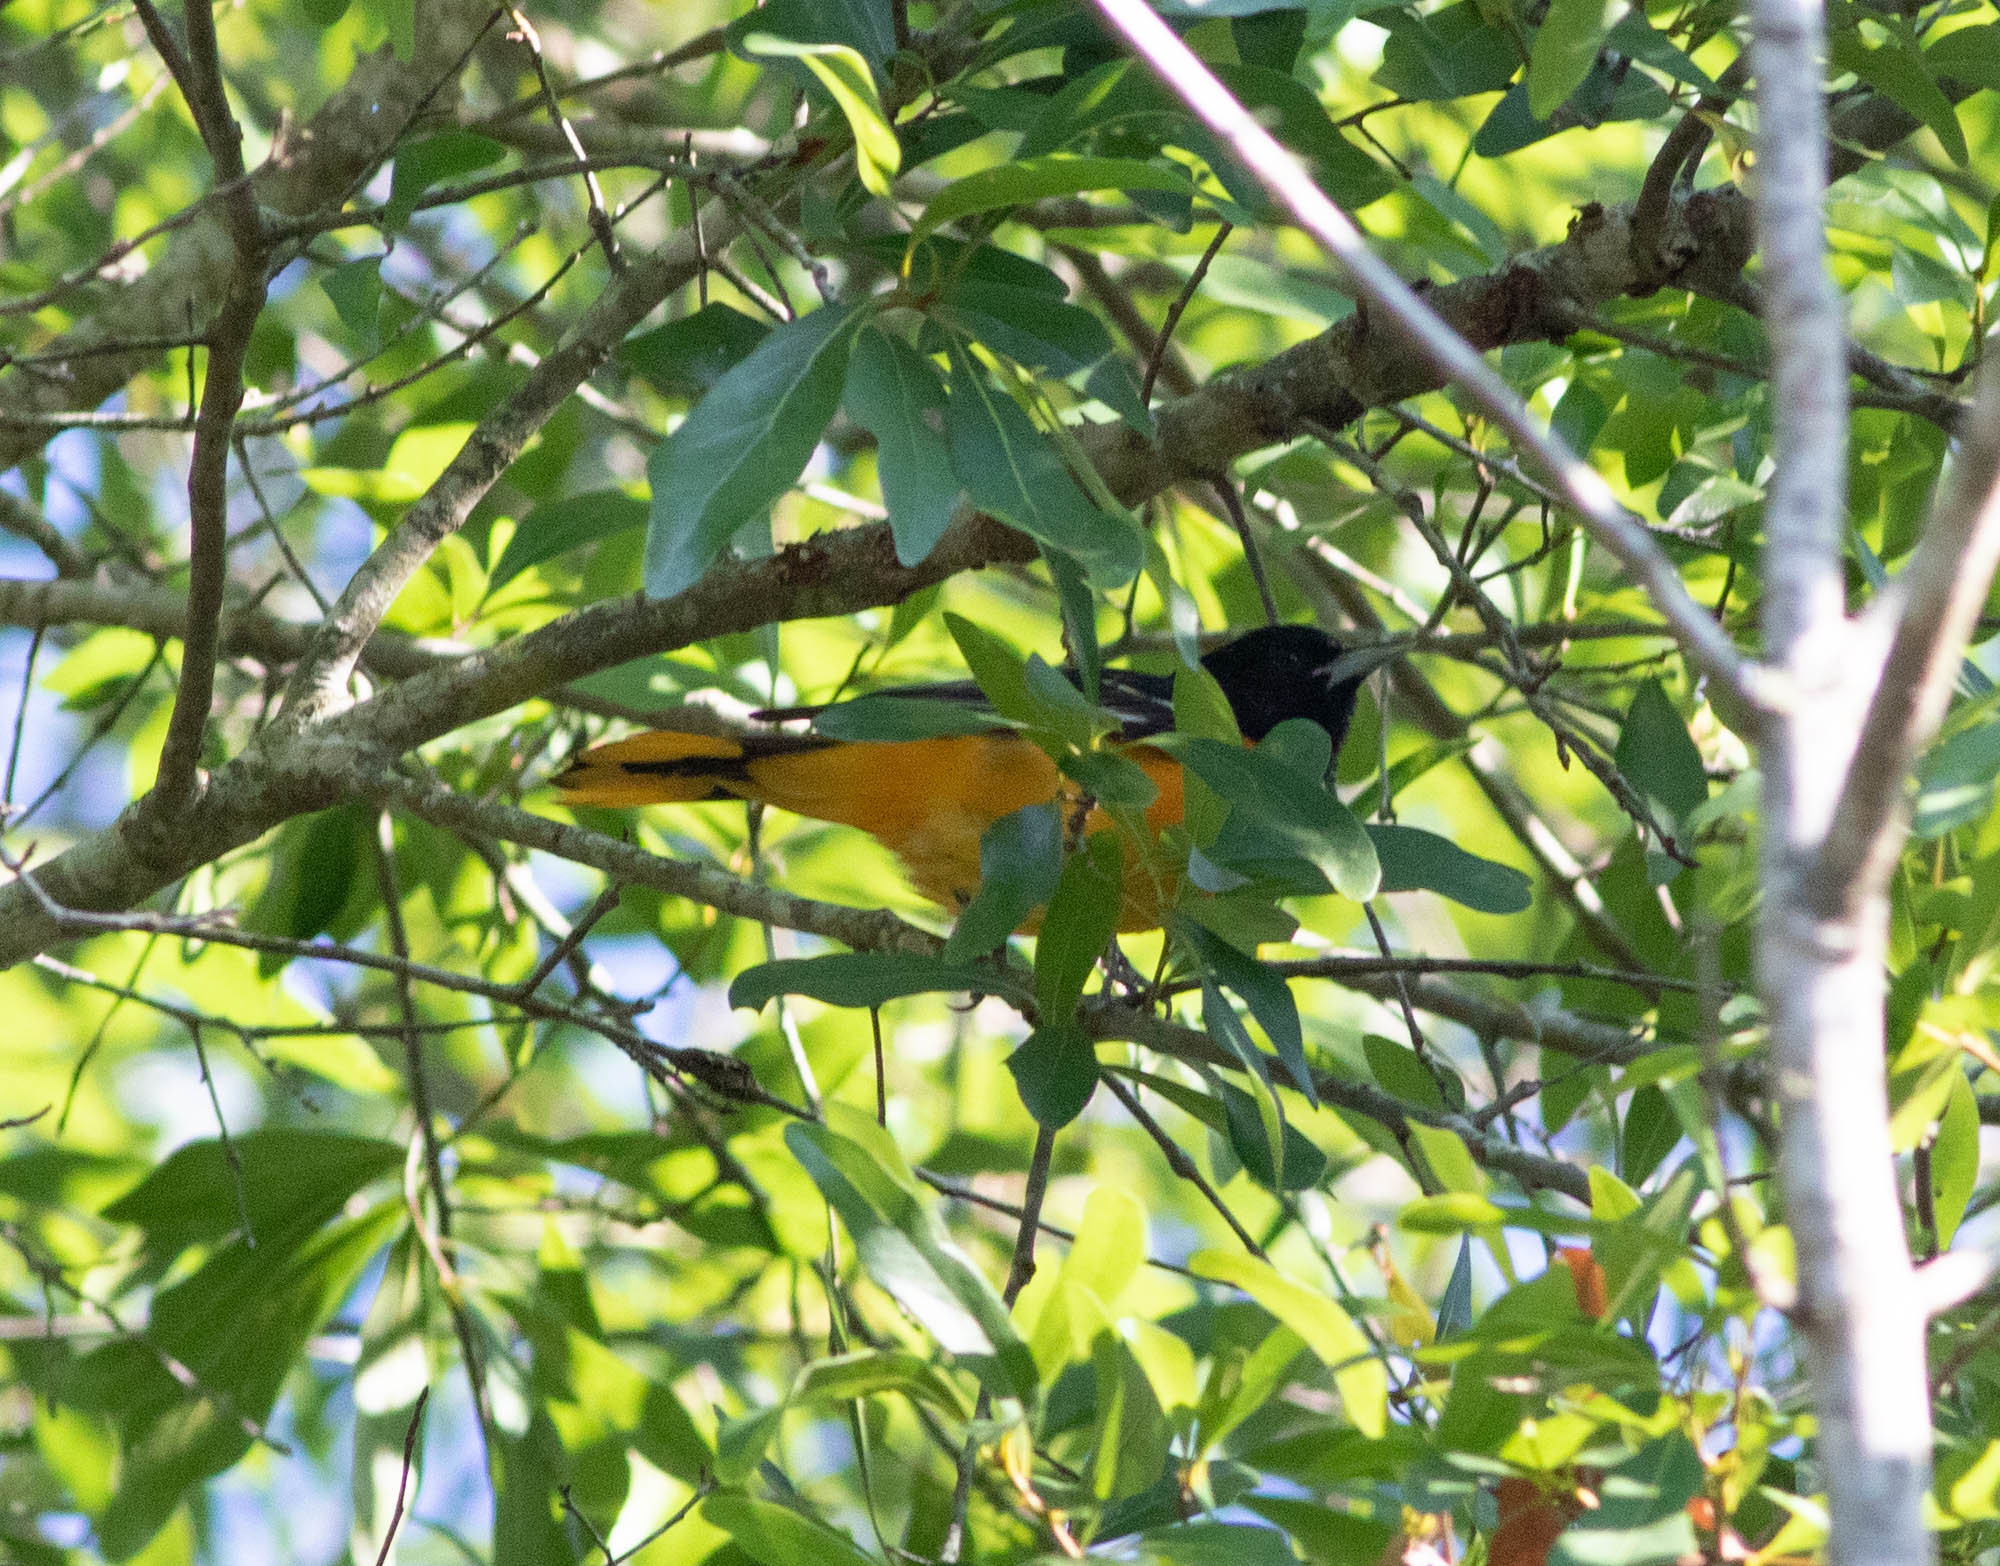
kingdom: Animalia
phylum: Chordata
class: Aves
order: Passeriformes
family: Icteridae
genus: Icterus
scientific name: Icterus galbula
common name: Baltimore oriole
